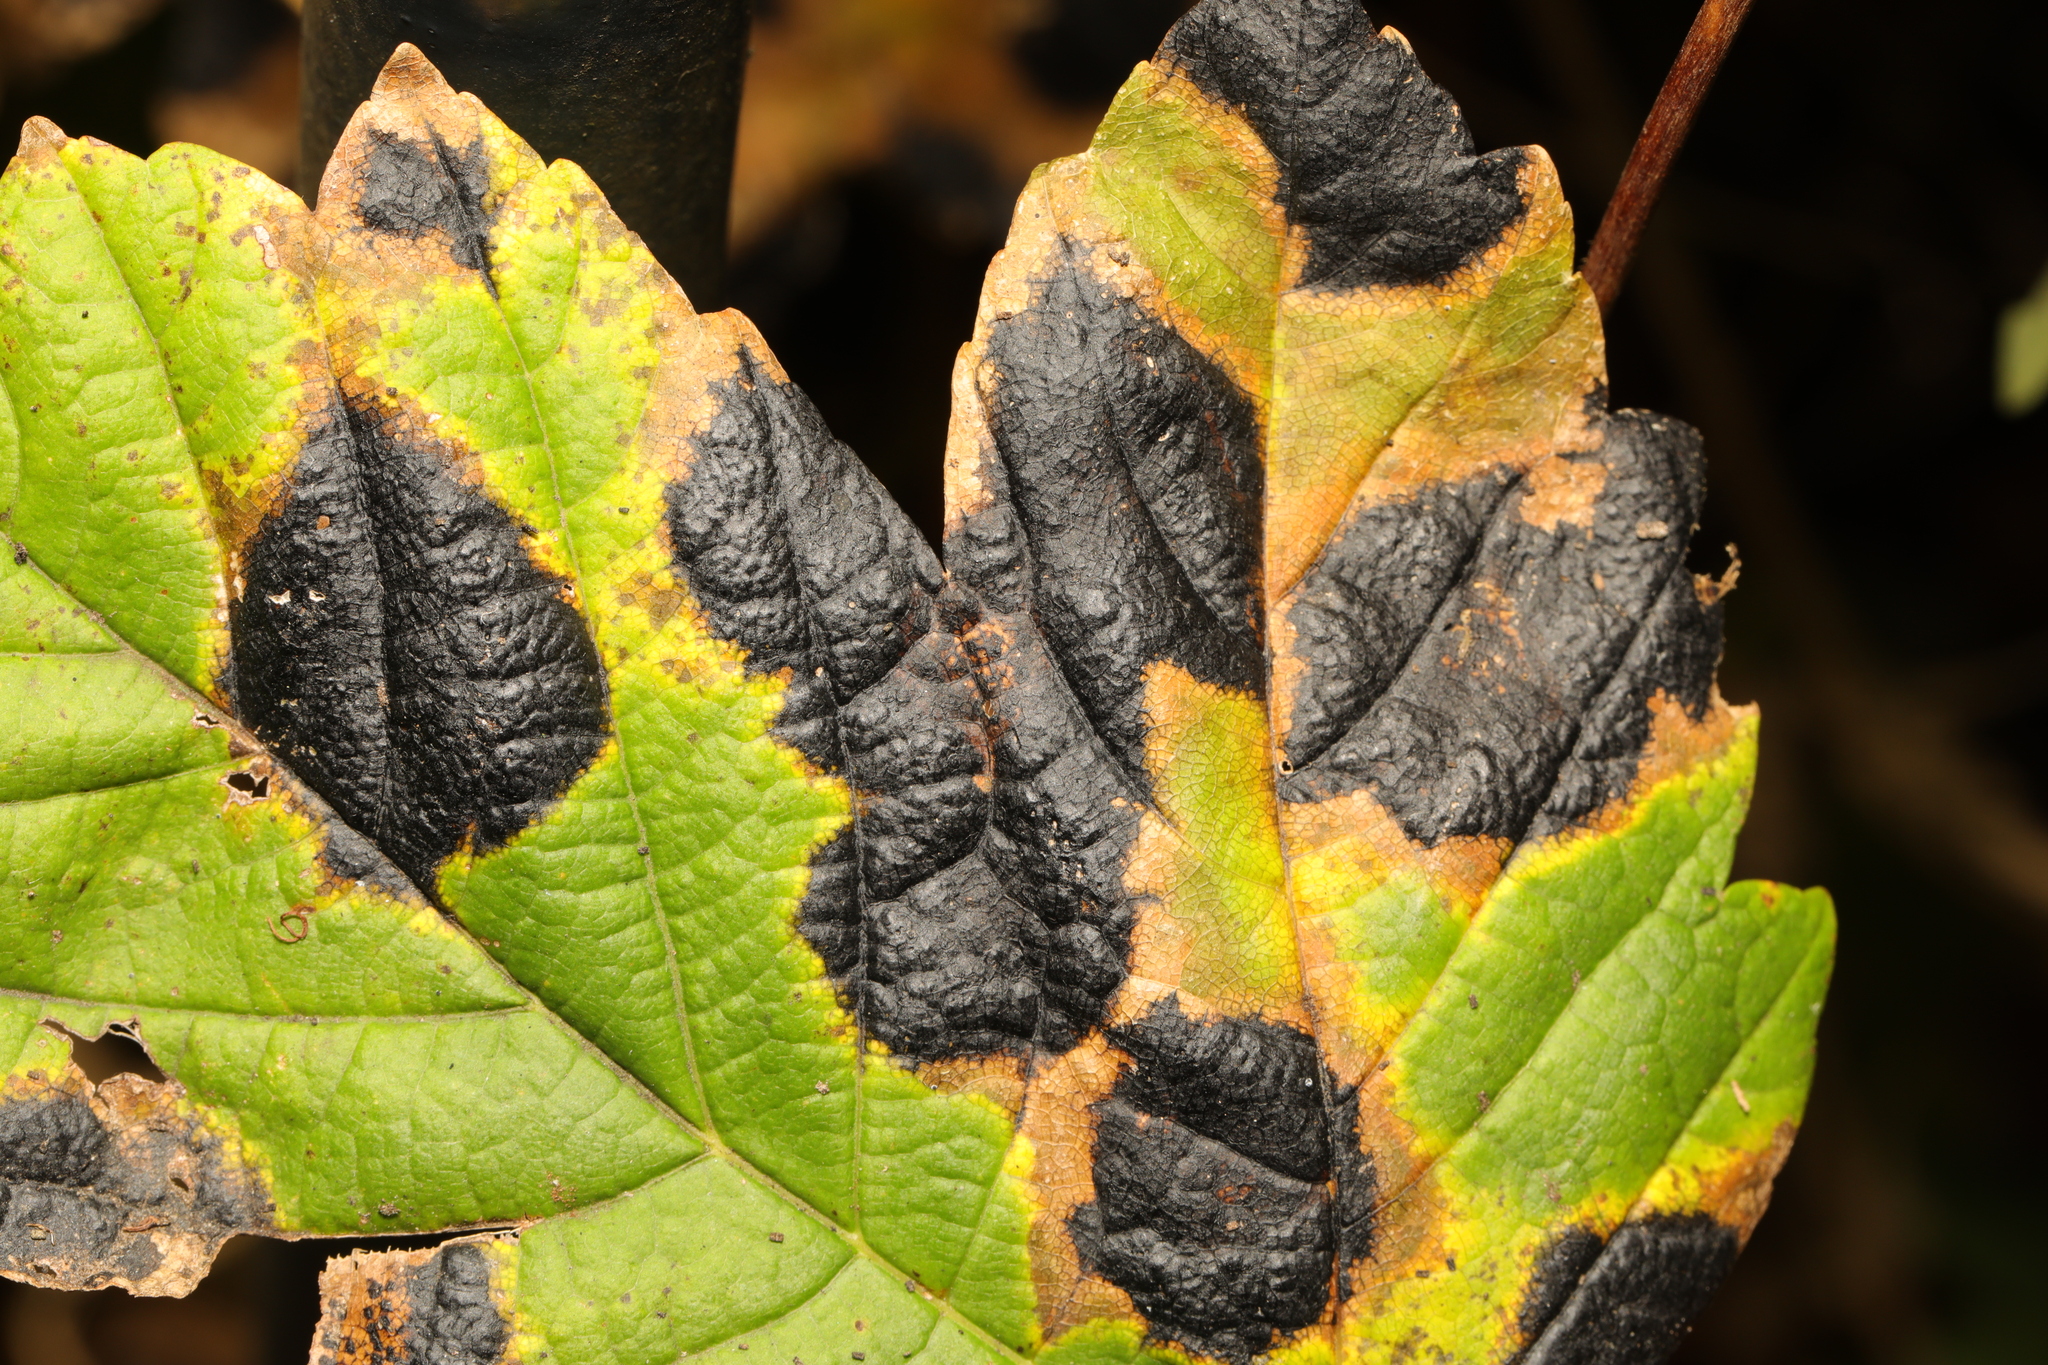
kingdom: Fungi
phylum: Ascomycota
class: Leotiomycetes
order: Rhytismatales
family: Rhytismataceae
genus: Rhytisma
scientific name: Rhytisma acerinum
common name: European tar spot
